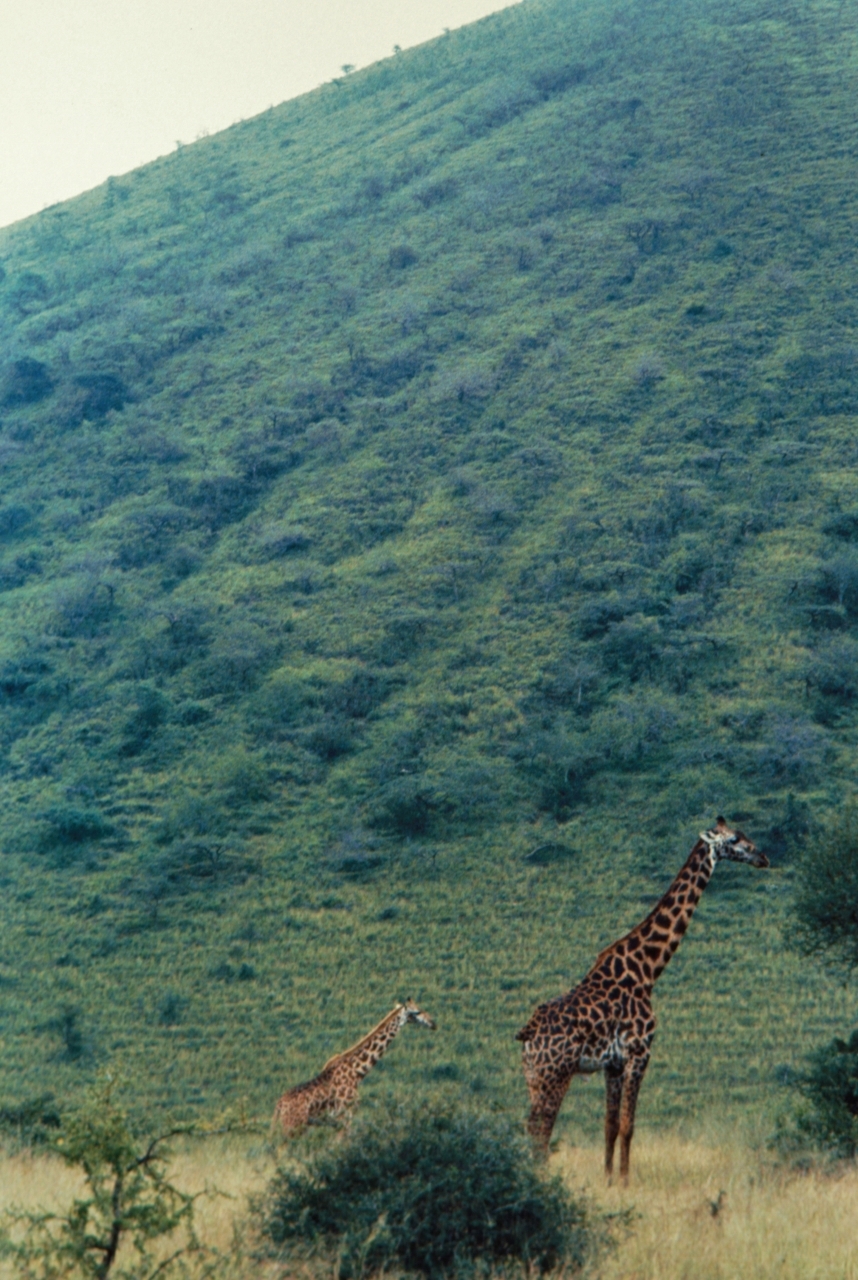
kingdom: Animalia
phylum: Chordata
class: Mammalia
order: Artiodactyla
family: Giraffidae
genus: Giraffa
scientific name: Giraffa tippelskirchi
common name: Masai giraffe
